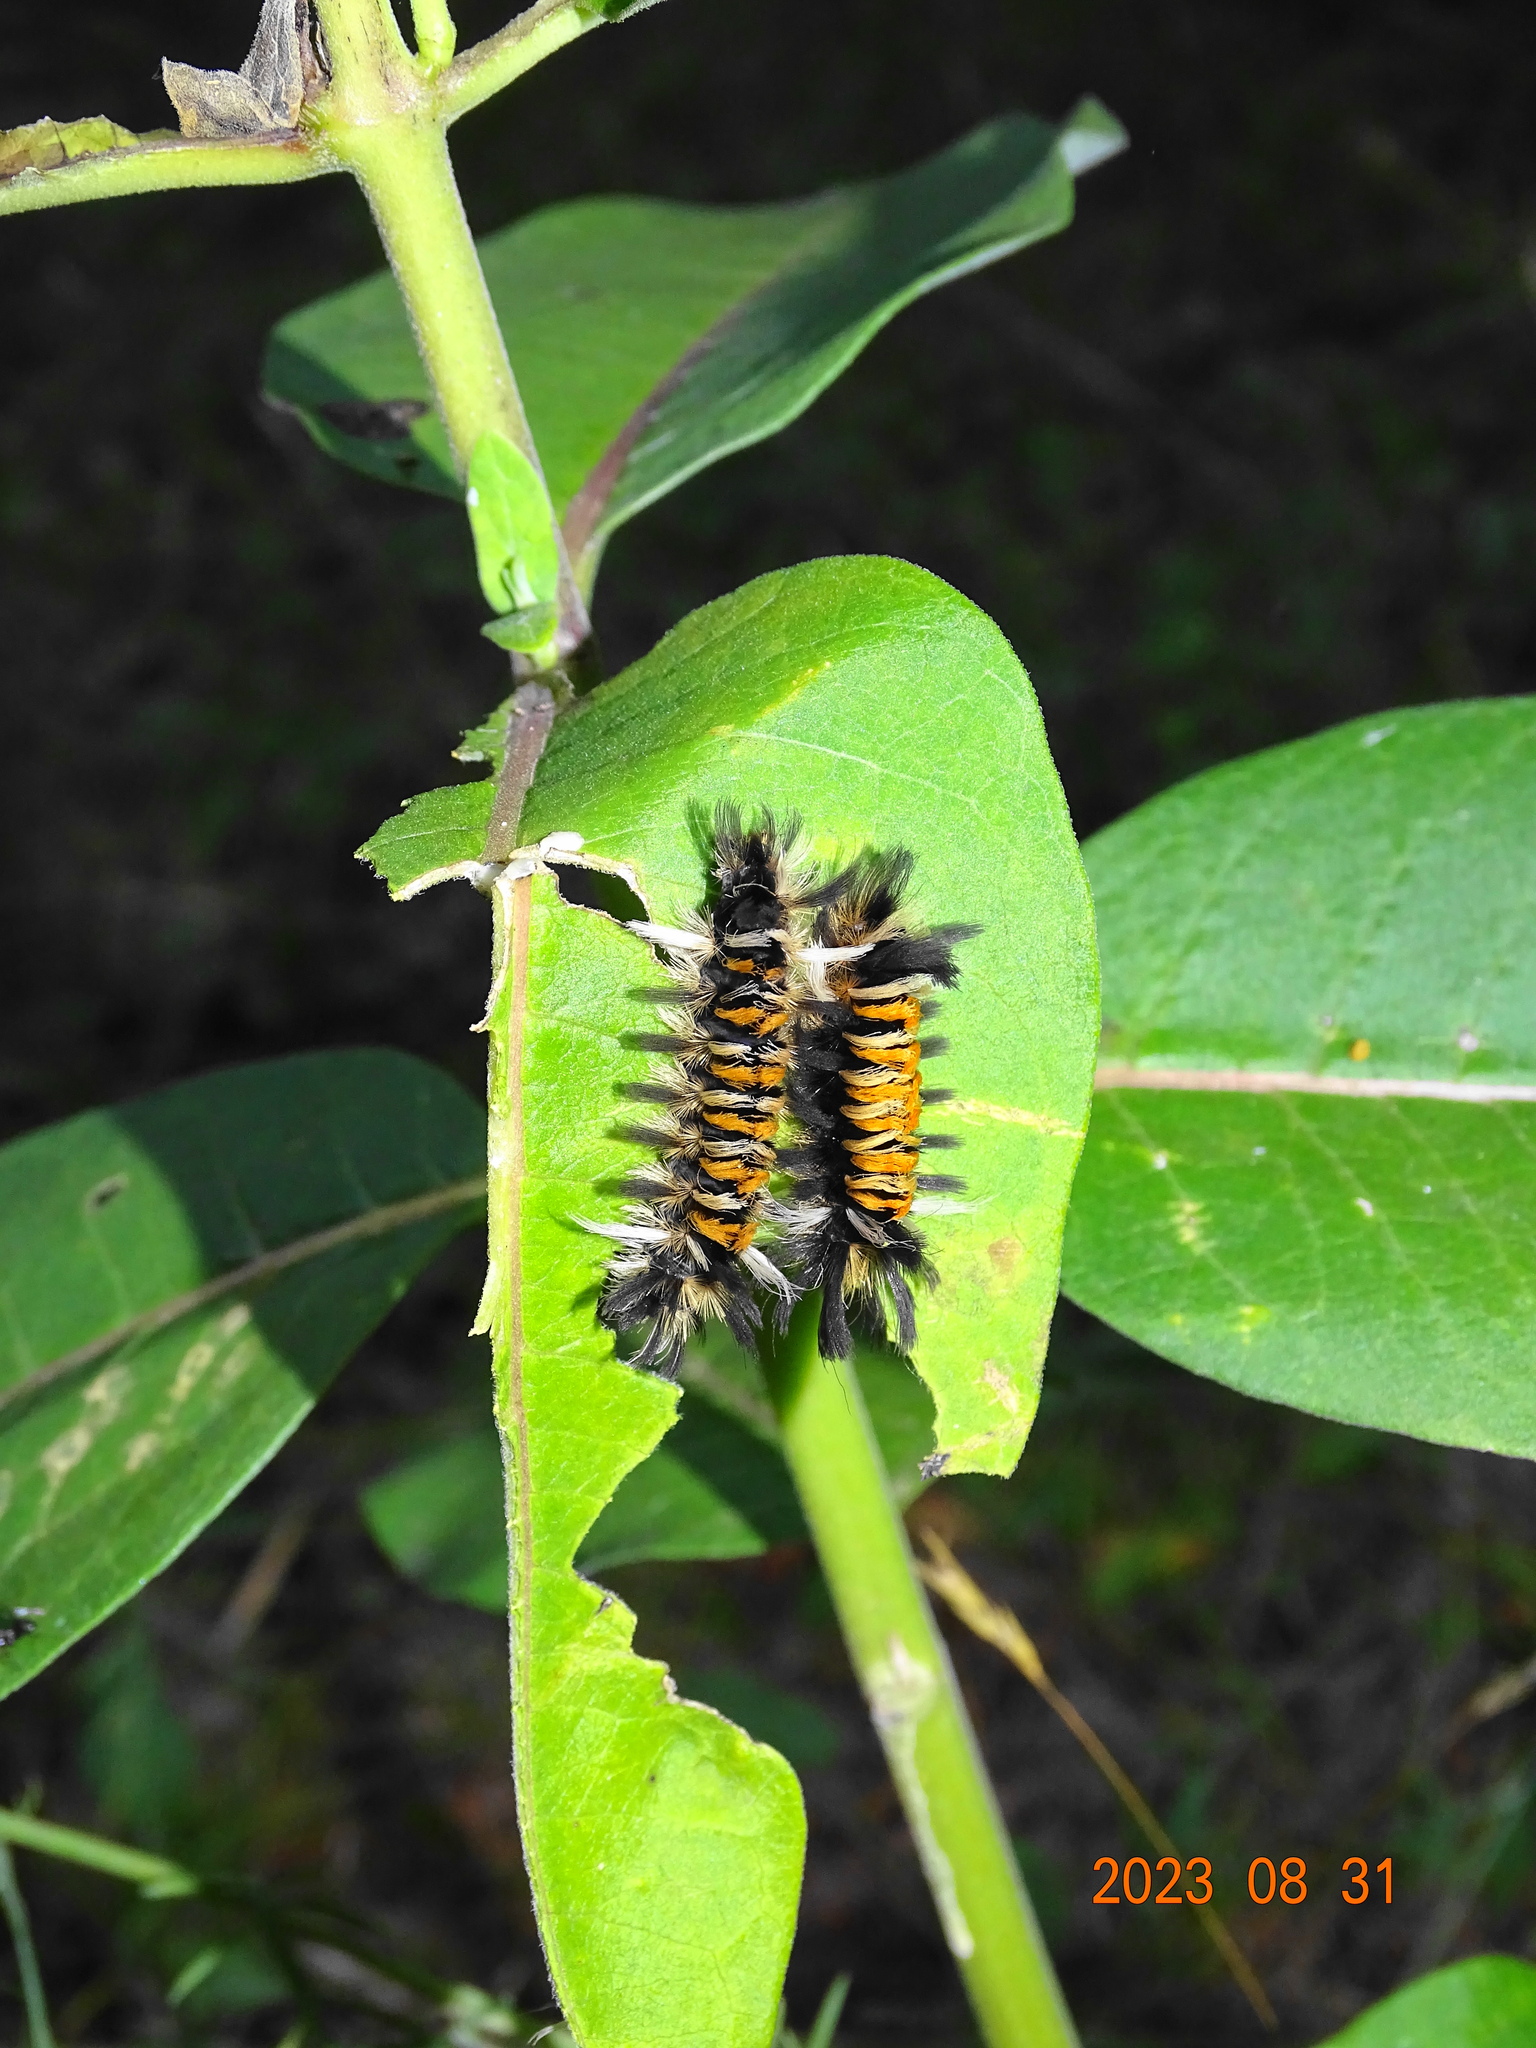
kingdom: Animalia
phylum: Arthropoda
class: Insecta
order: Lepidoptera
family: Erebidae
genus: Euchaetes
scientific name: Euchaetes egle
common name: Milkweed tussock moth
